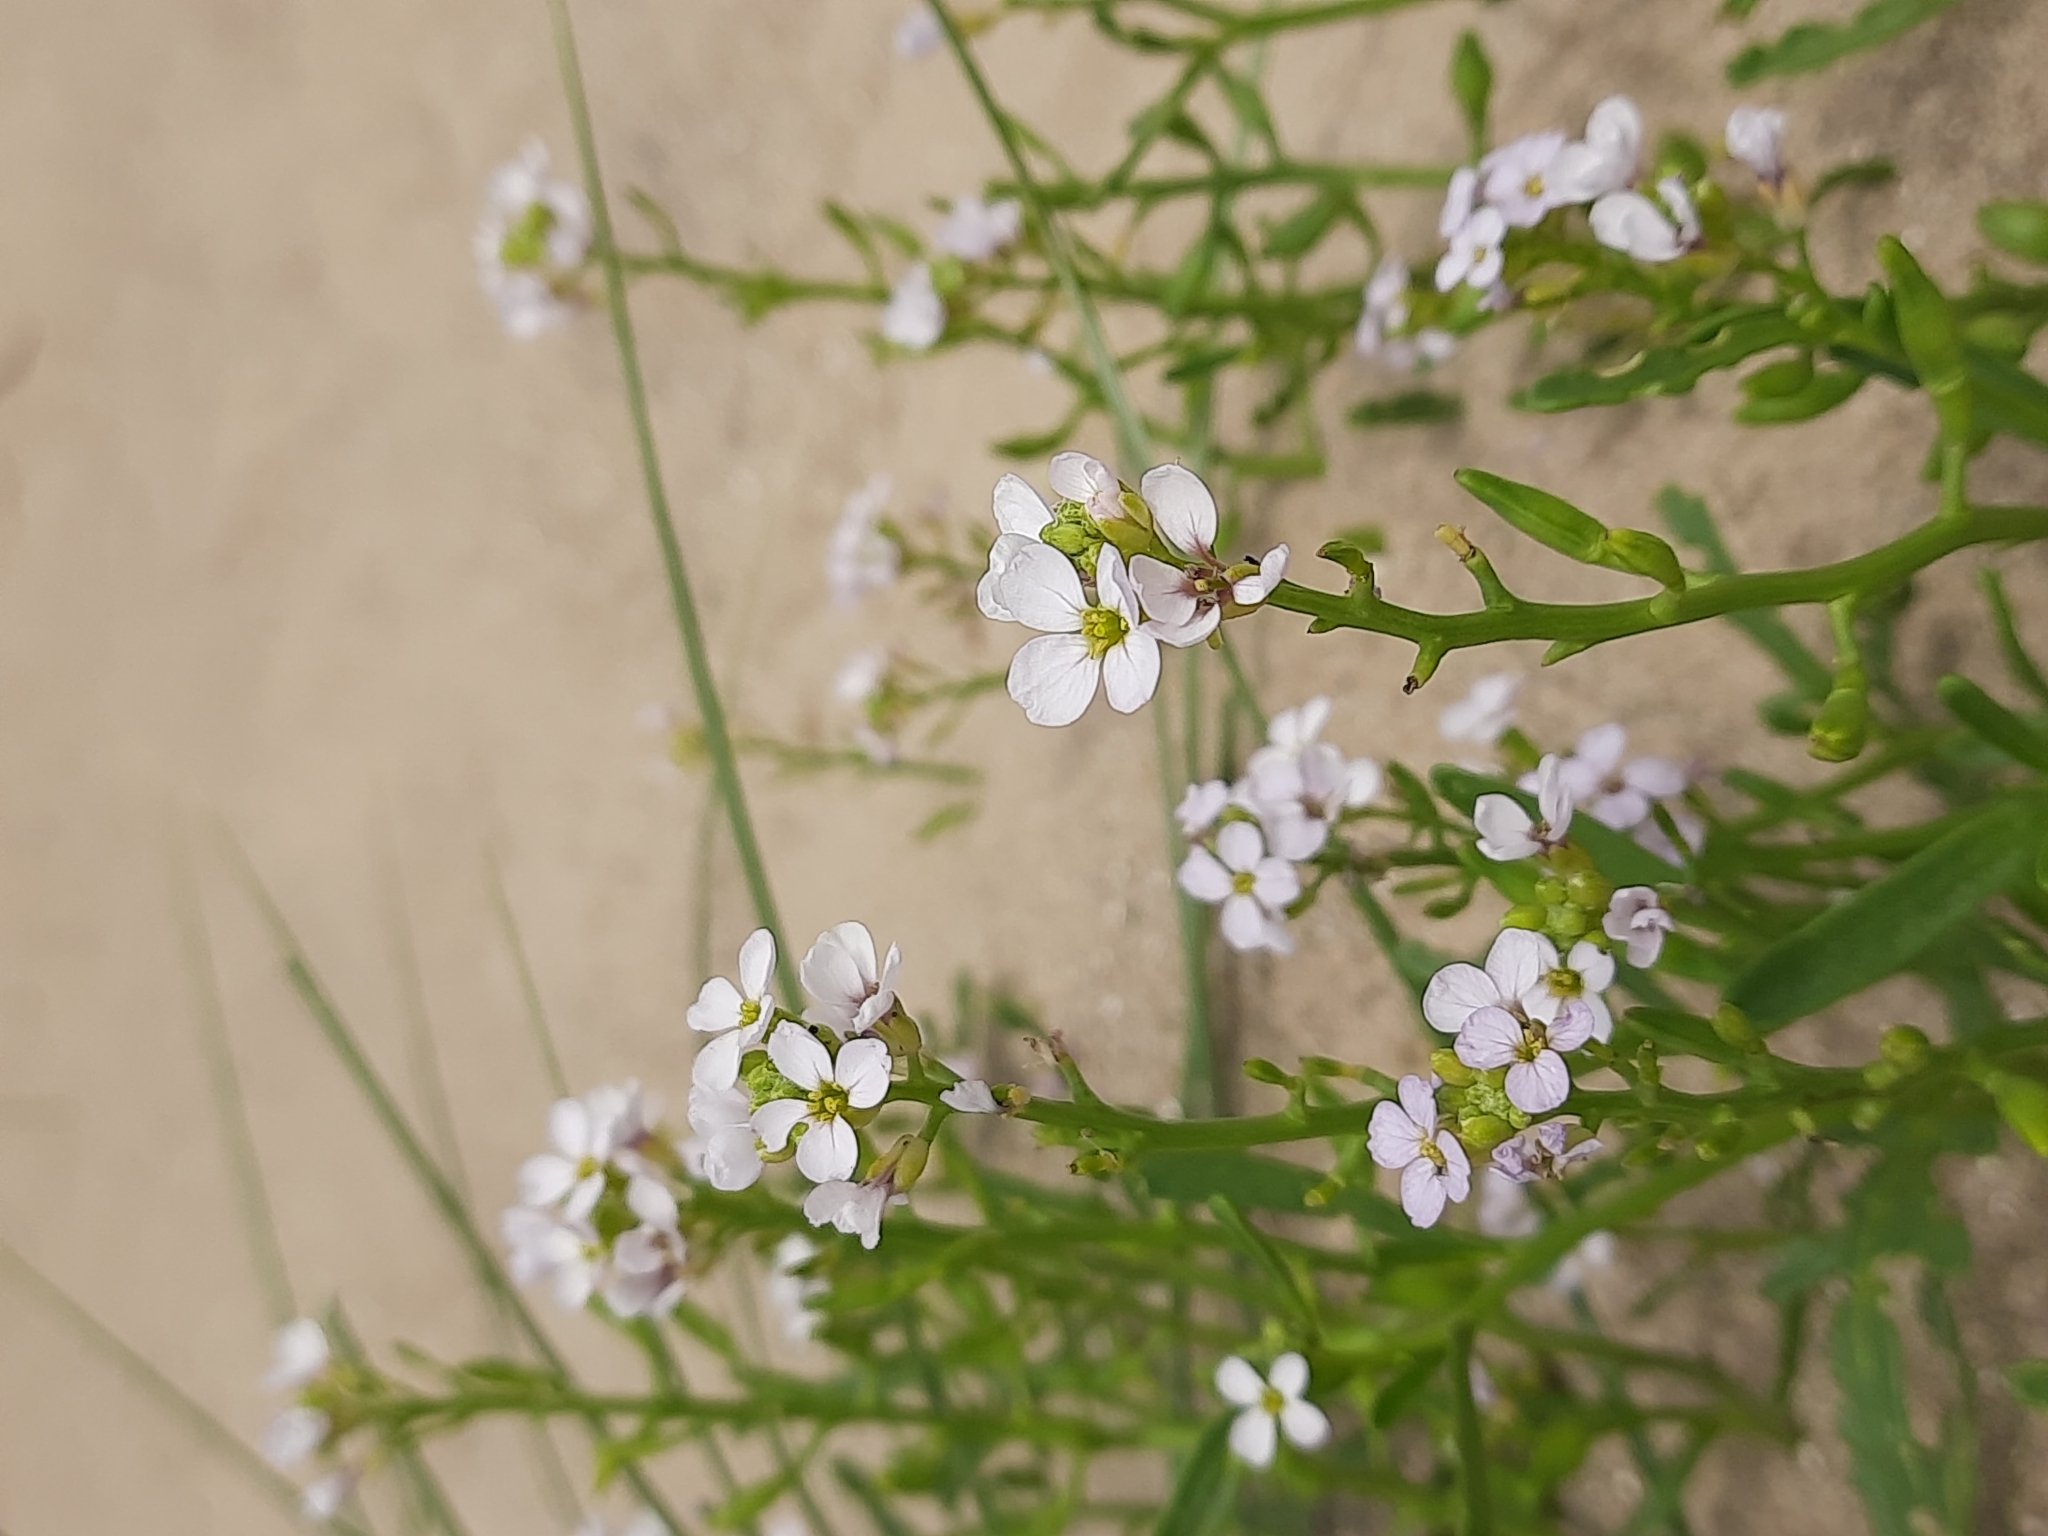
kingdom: Plantae
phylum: Tracheophyta
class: Magnoliopsida
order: Brassicales
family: Brassicaceae
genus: Cakile
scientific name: Cakile maritima
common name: Sea rocket
